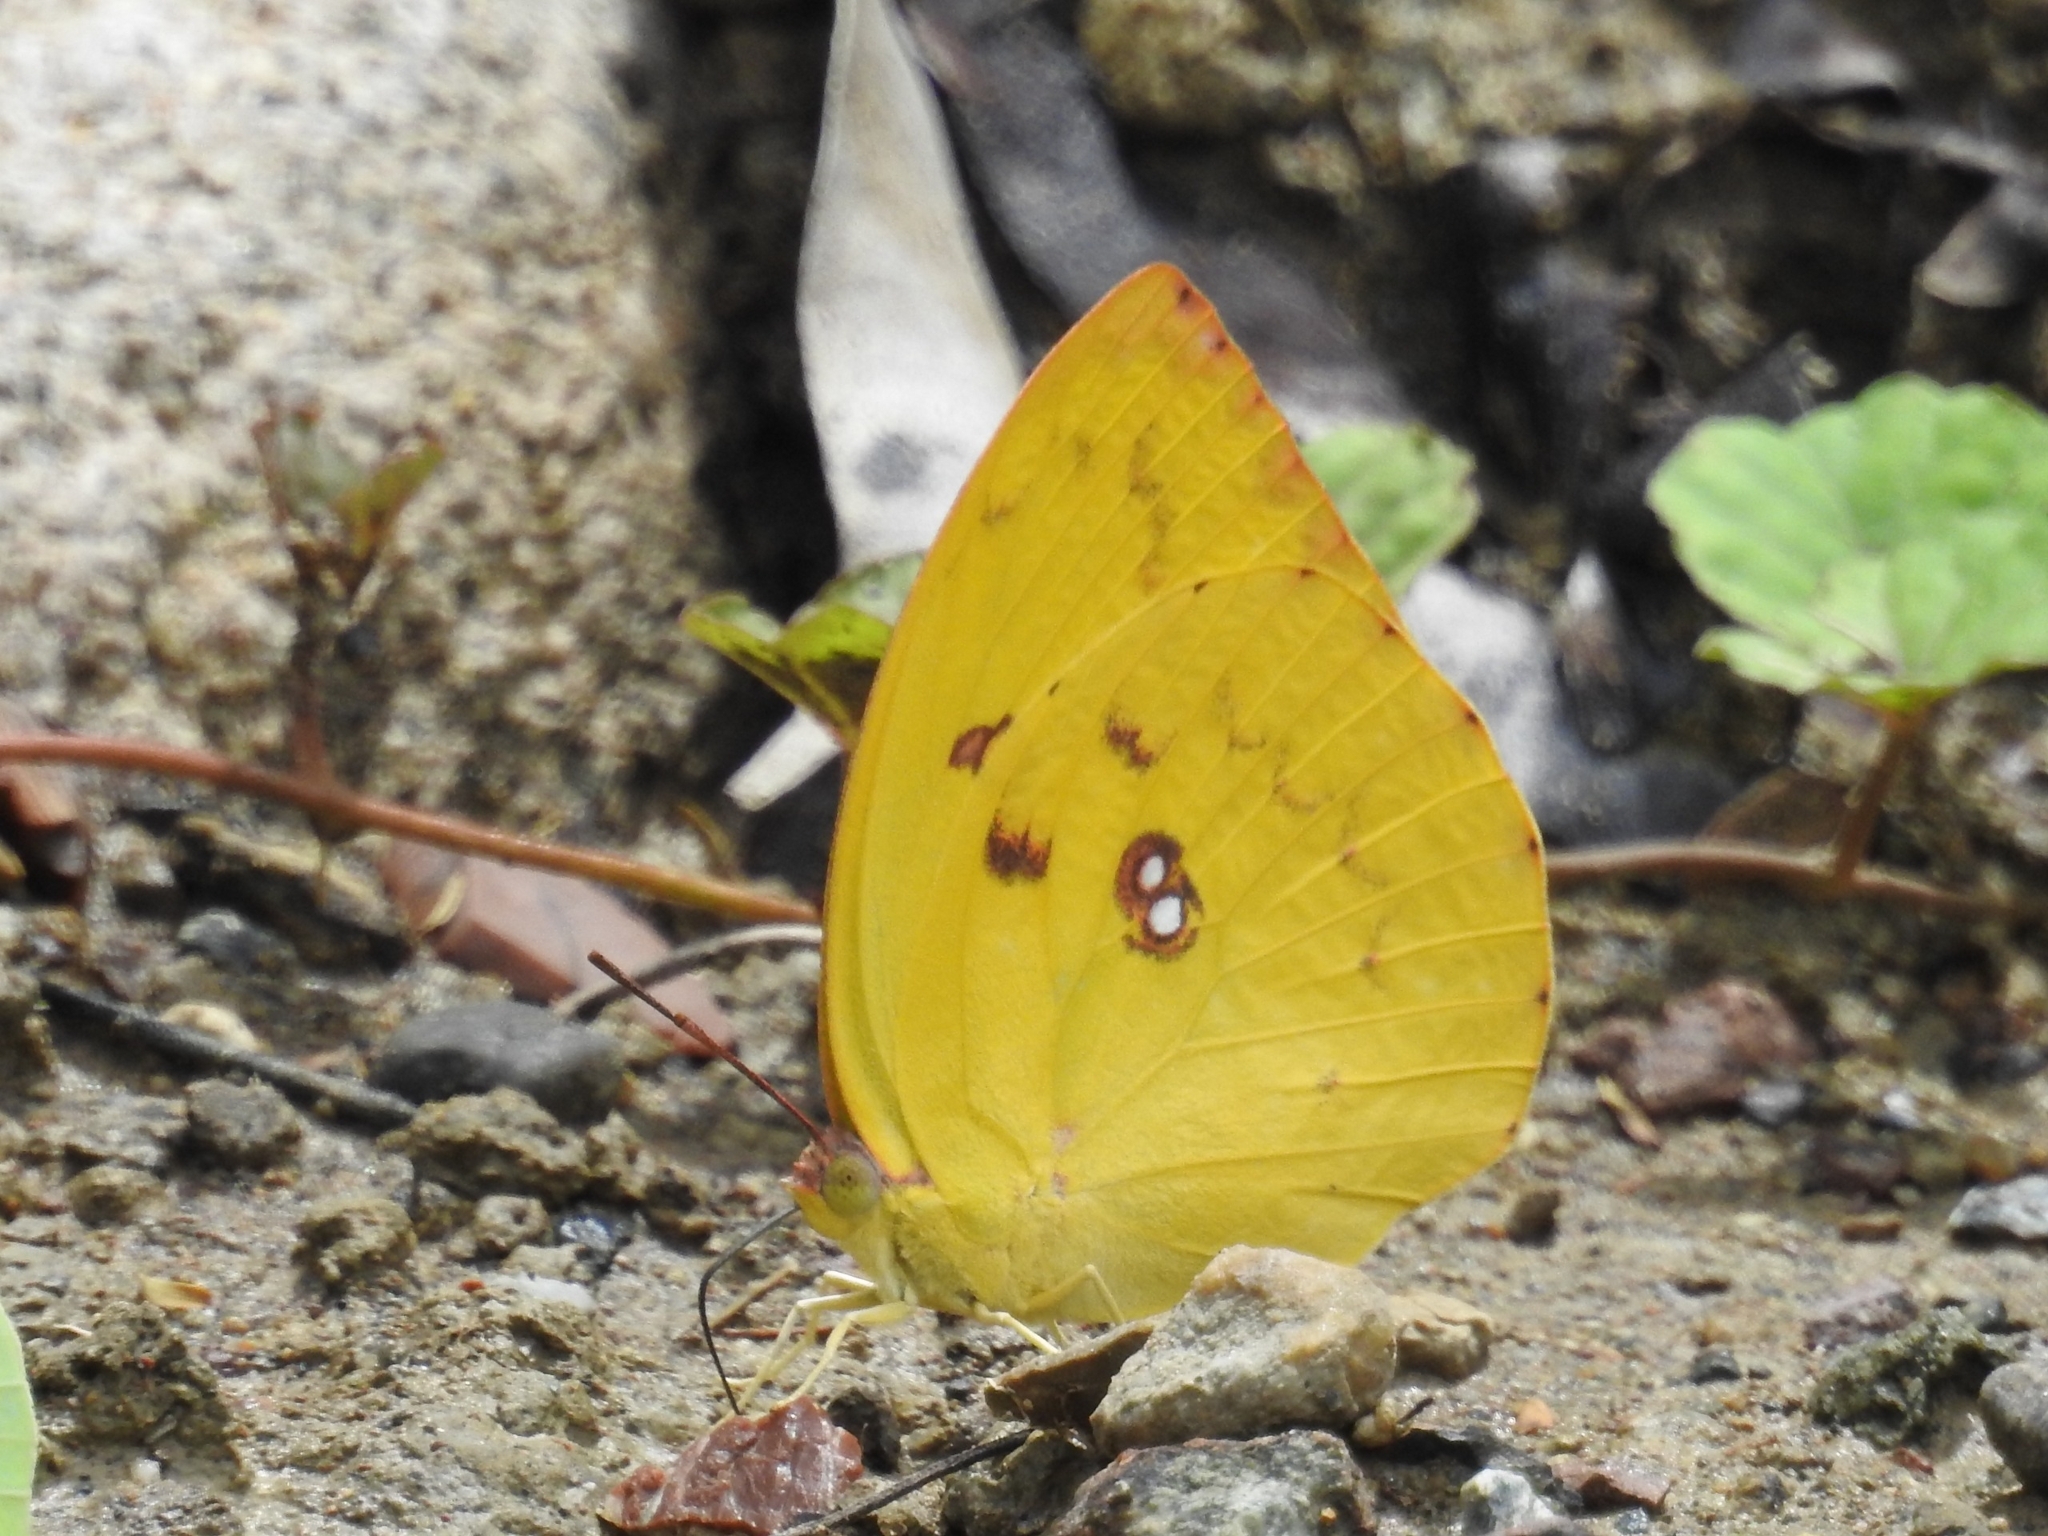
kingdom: Animalia
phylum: Arthropoda
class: Insecta
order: Lepidoptera
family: Pieridae
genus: Catopsilia
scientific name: Catopsilia pomona
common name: Common emigrant
